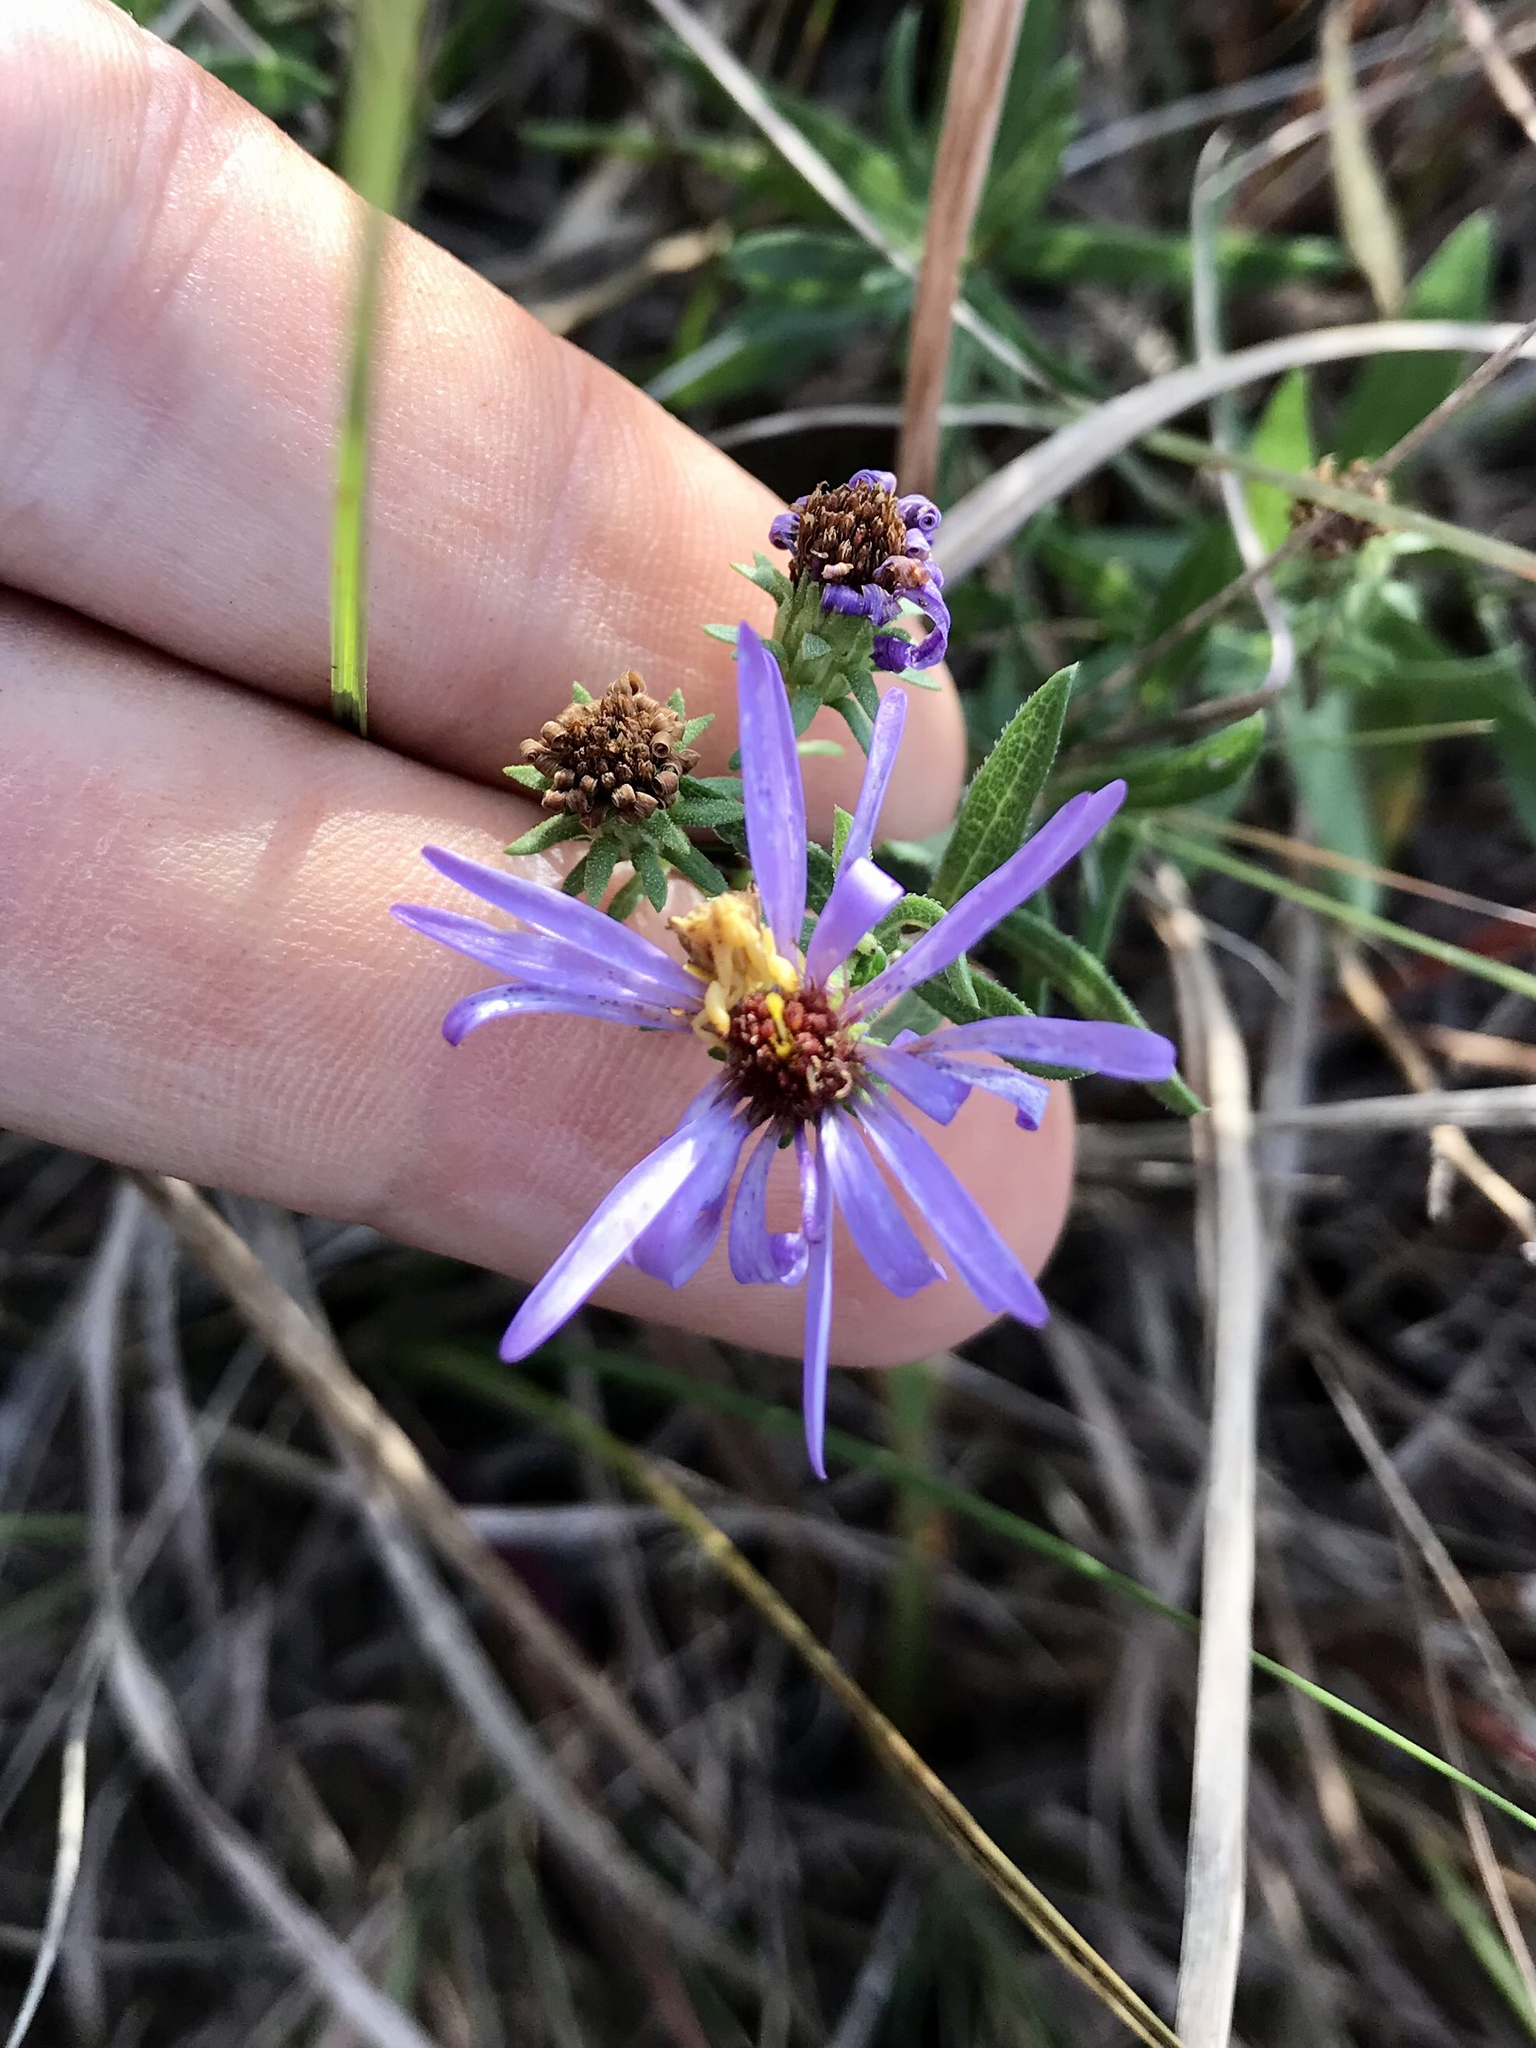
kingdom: Plantae
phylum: Tracheophyta
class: Magnoliopsida
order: Asterales
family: Asteraceae
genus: Symphyotrichum
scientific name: Symphyotrichum oblongifolium
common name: Aromatic aster
